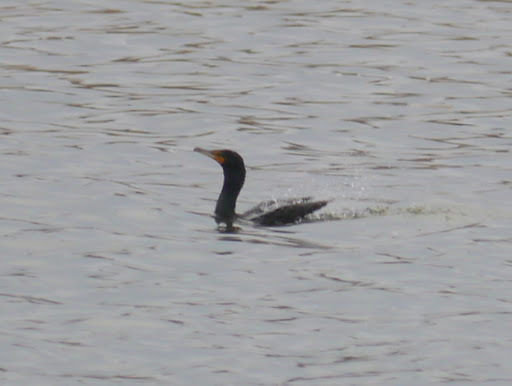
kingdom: Animalia
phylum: Chordata
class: Aves
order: Suliformes
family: Phalacrocoracidae
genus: Phalacrocorax
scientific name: Phalacrocorax auritus
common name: Double-crested cormorant
